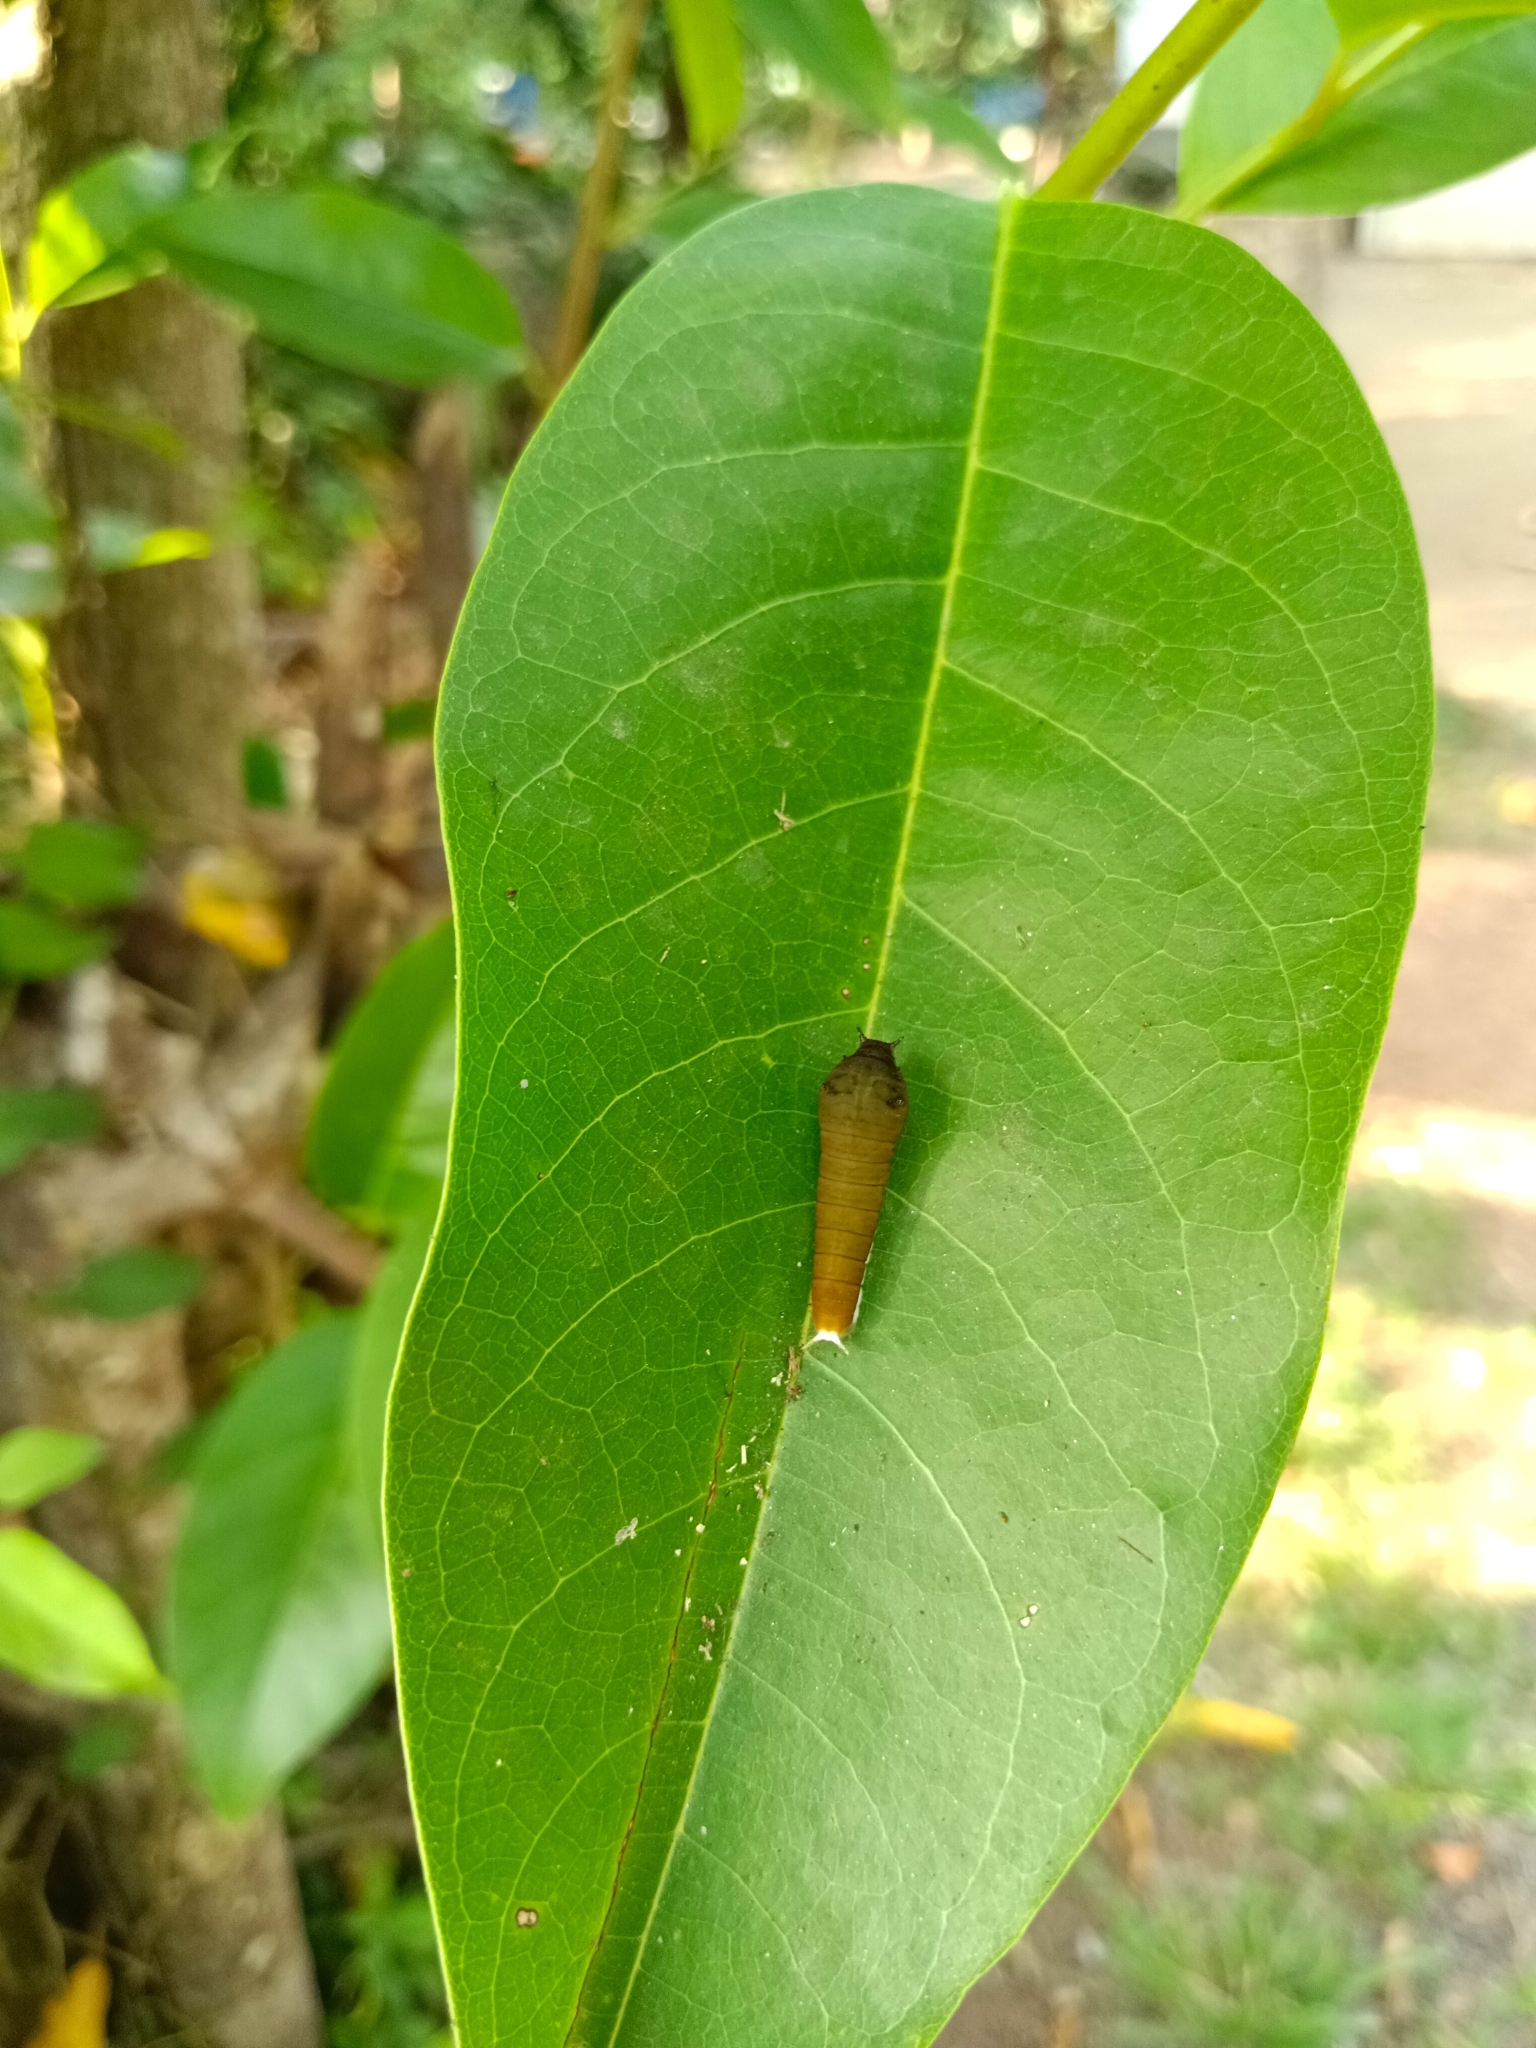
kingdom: Animalia
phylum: Arthropoda
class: Insecta
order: Lepidoptera
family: Papilionidae
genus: Graphium
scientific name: Graphium doson
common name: Common jay
